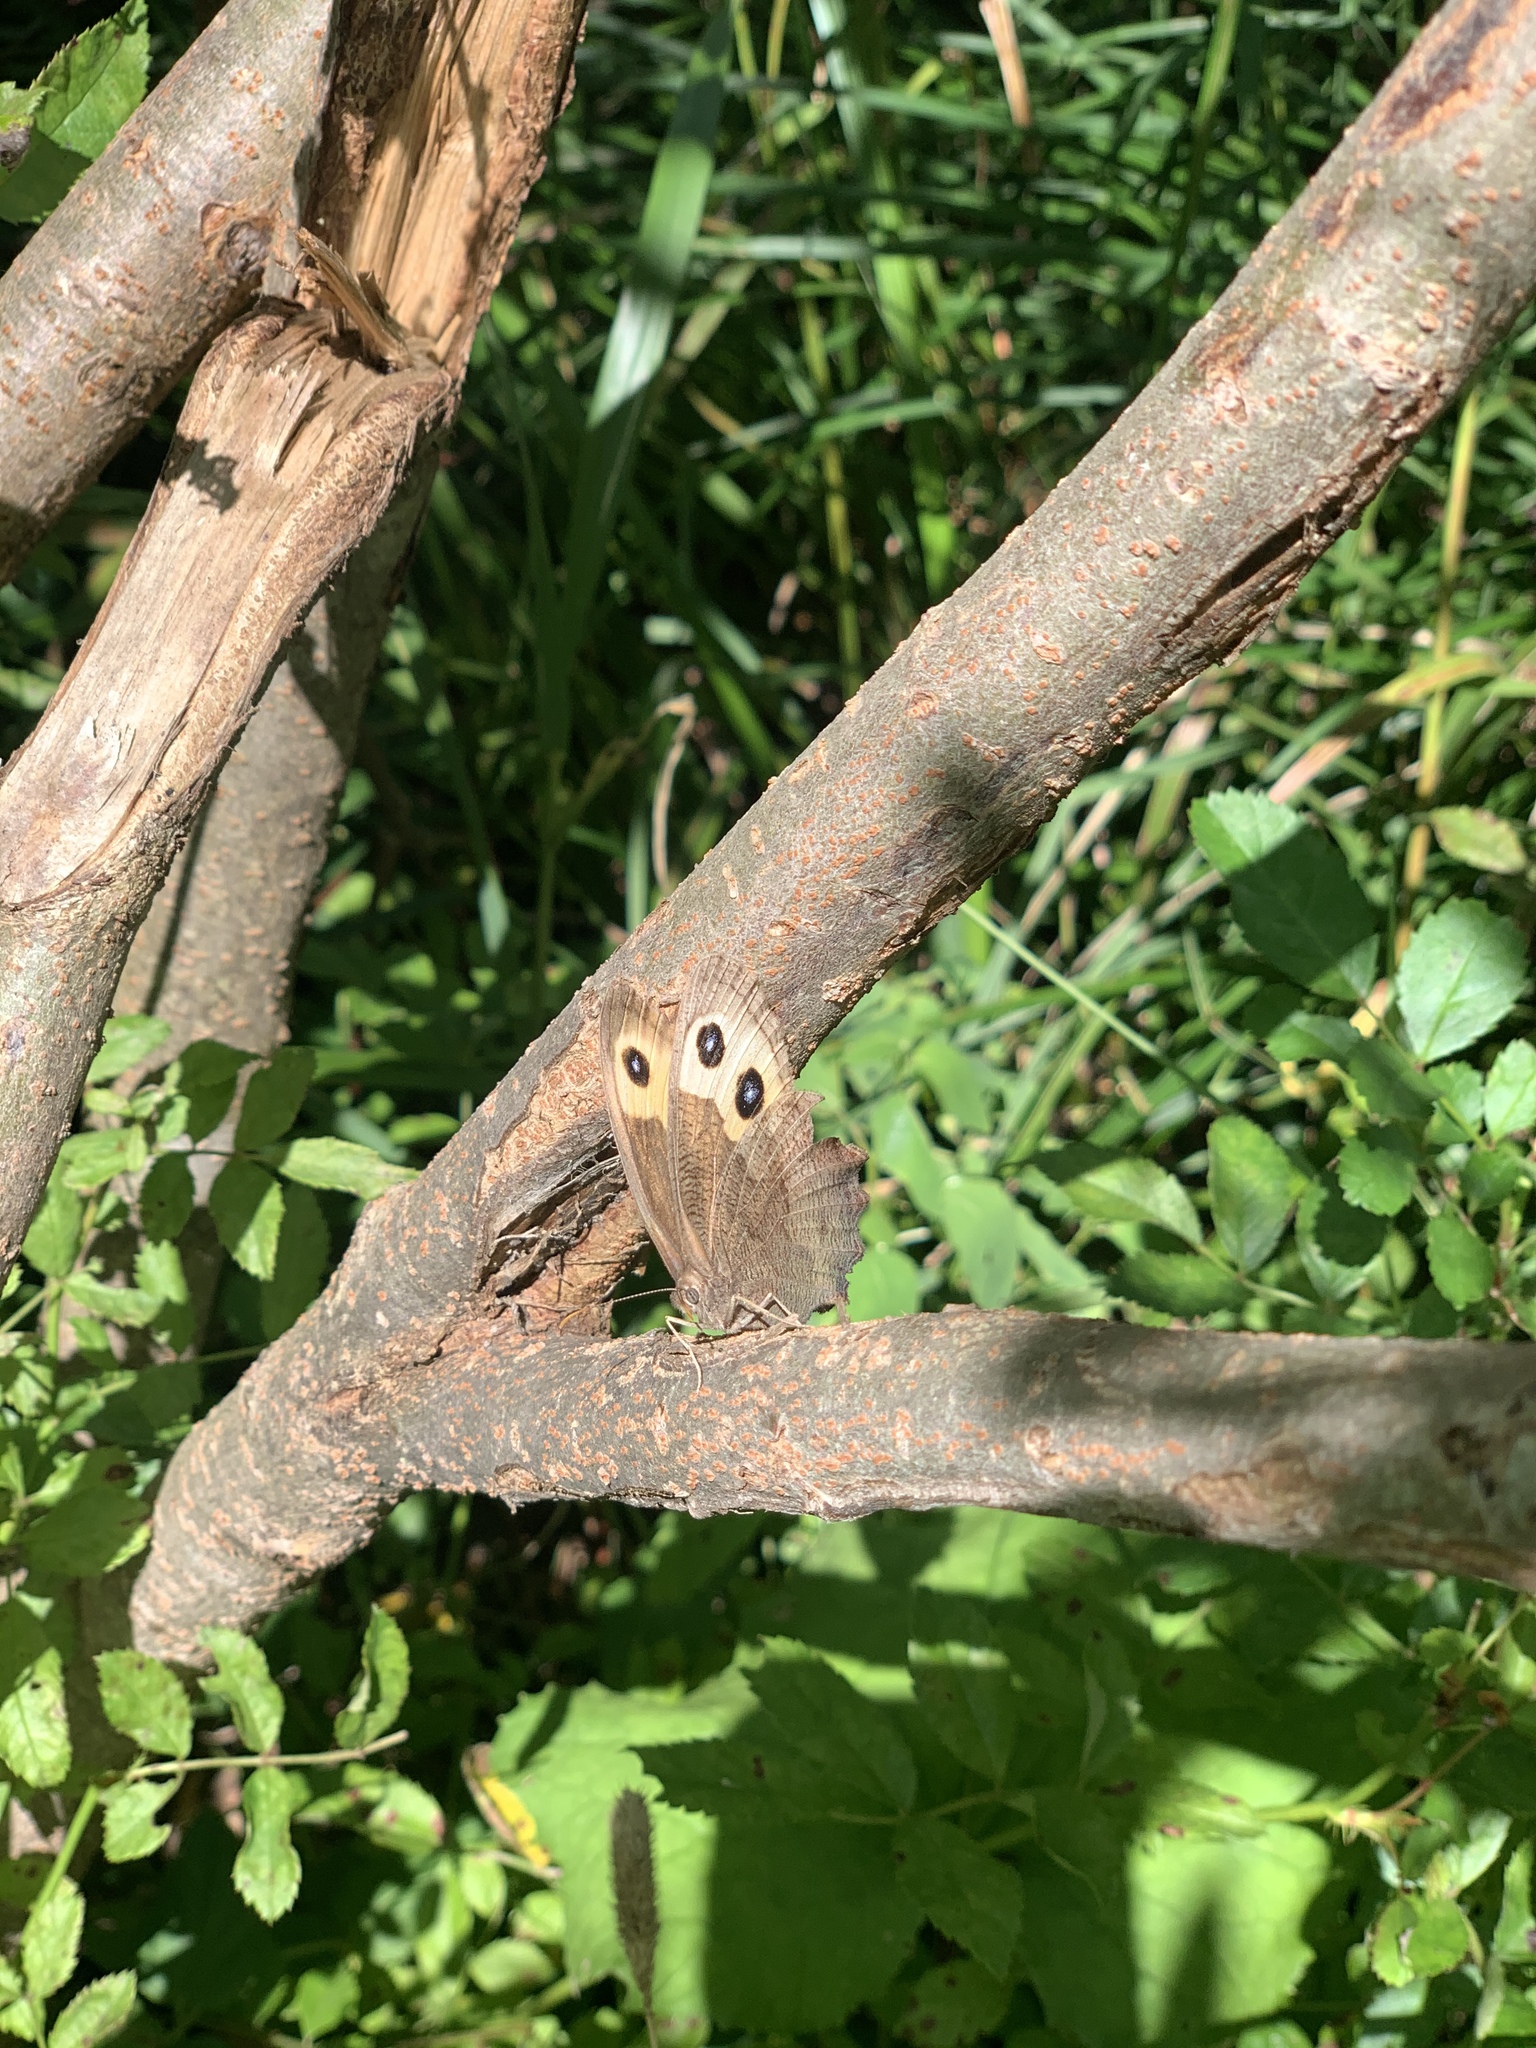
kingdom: Animalia
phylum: Arthropoda
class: Insecta
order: Lepidoptera
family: Nymphalidae
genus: Cercyonis
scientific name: Cercyonis pegala
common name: Common wood-nymph
